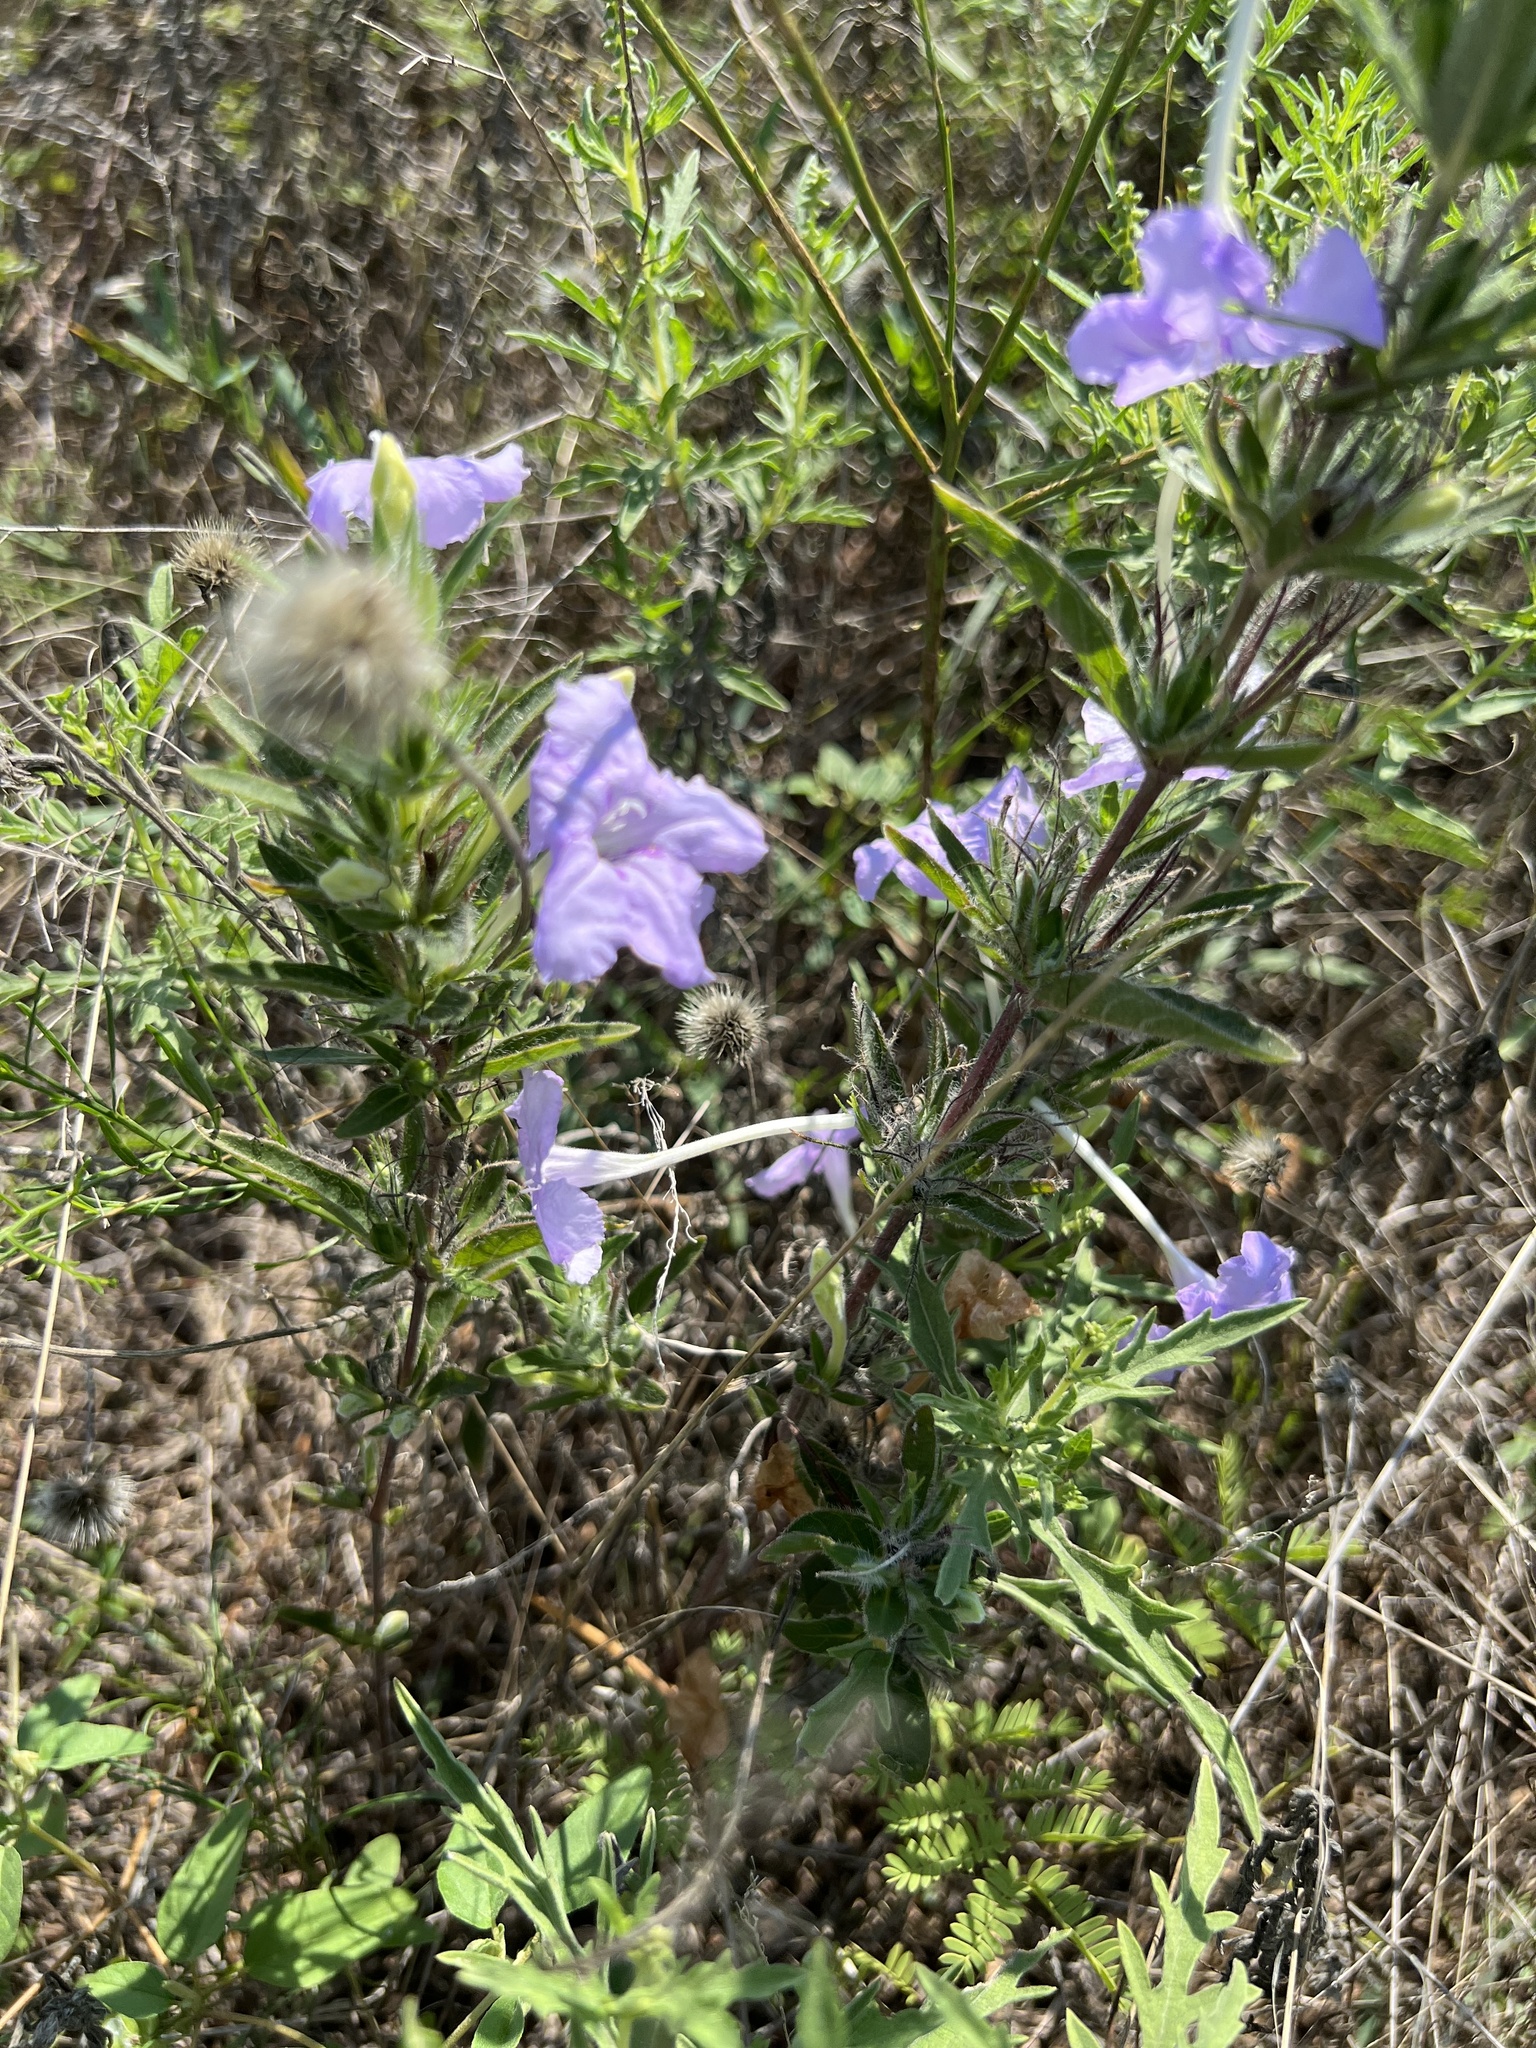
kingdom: Plantae
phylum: Tracheophyta
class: Magnoliopsida
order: Lamiales
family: Acanthaceae
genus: Ruellia
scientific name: Ruellia humilis
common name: Fringe-leaf ruellia
